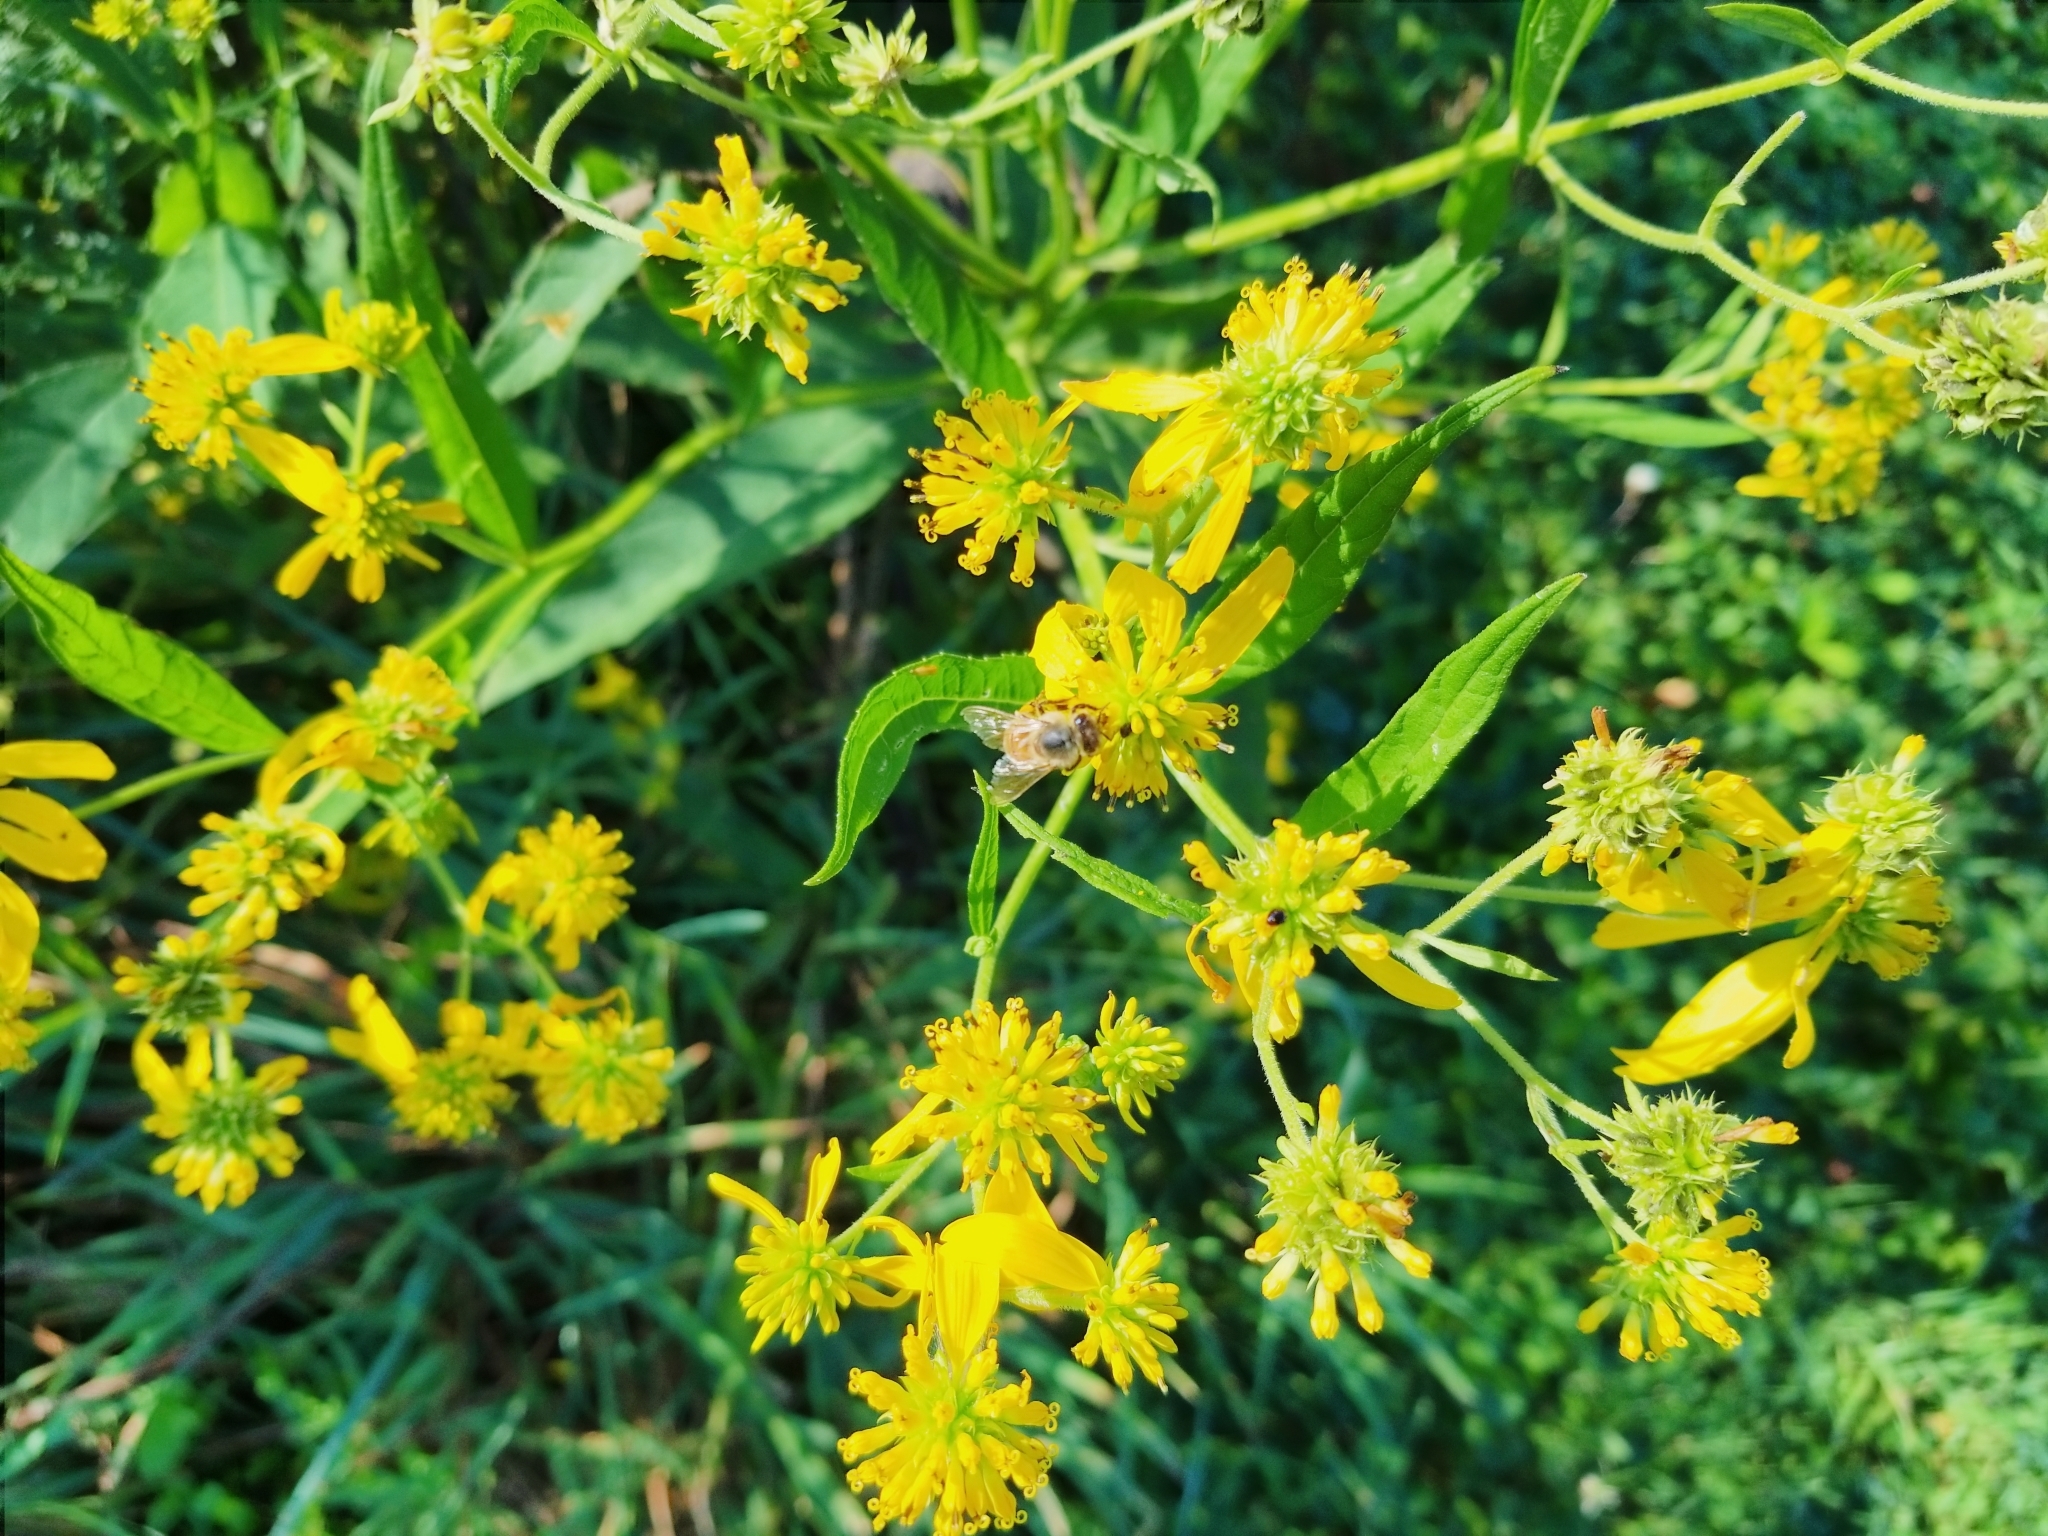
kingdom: Animalia
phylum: Arthropoda
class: Insecta
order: Hymenoptera
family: Apidae
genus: Apis
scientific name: Apis mellifera
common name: Honey bee
